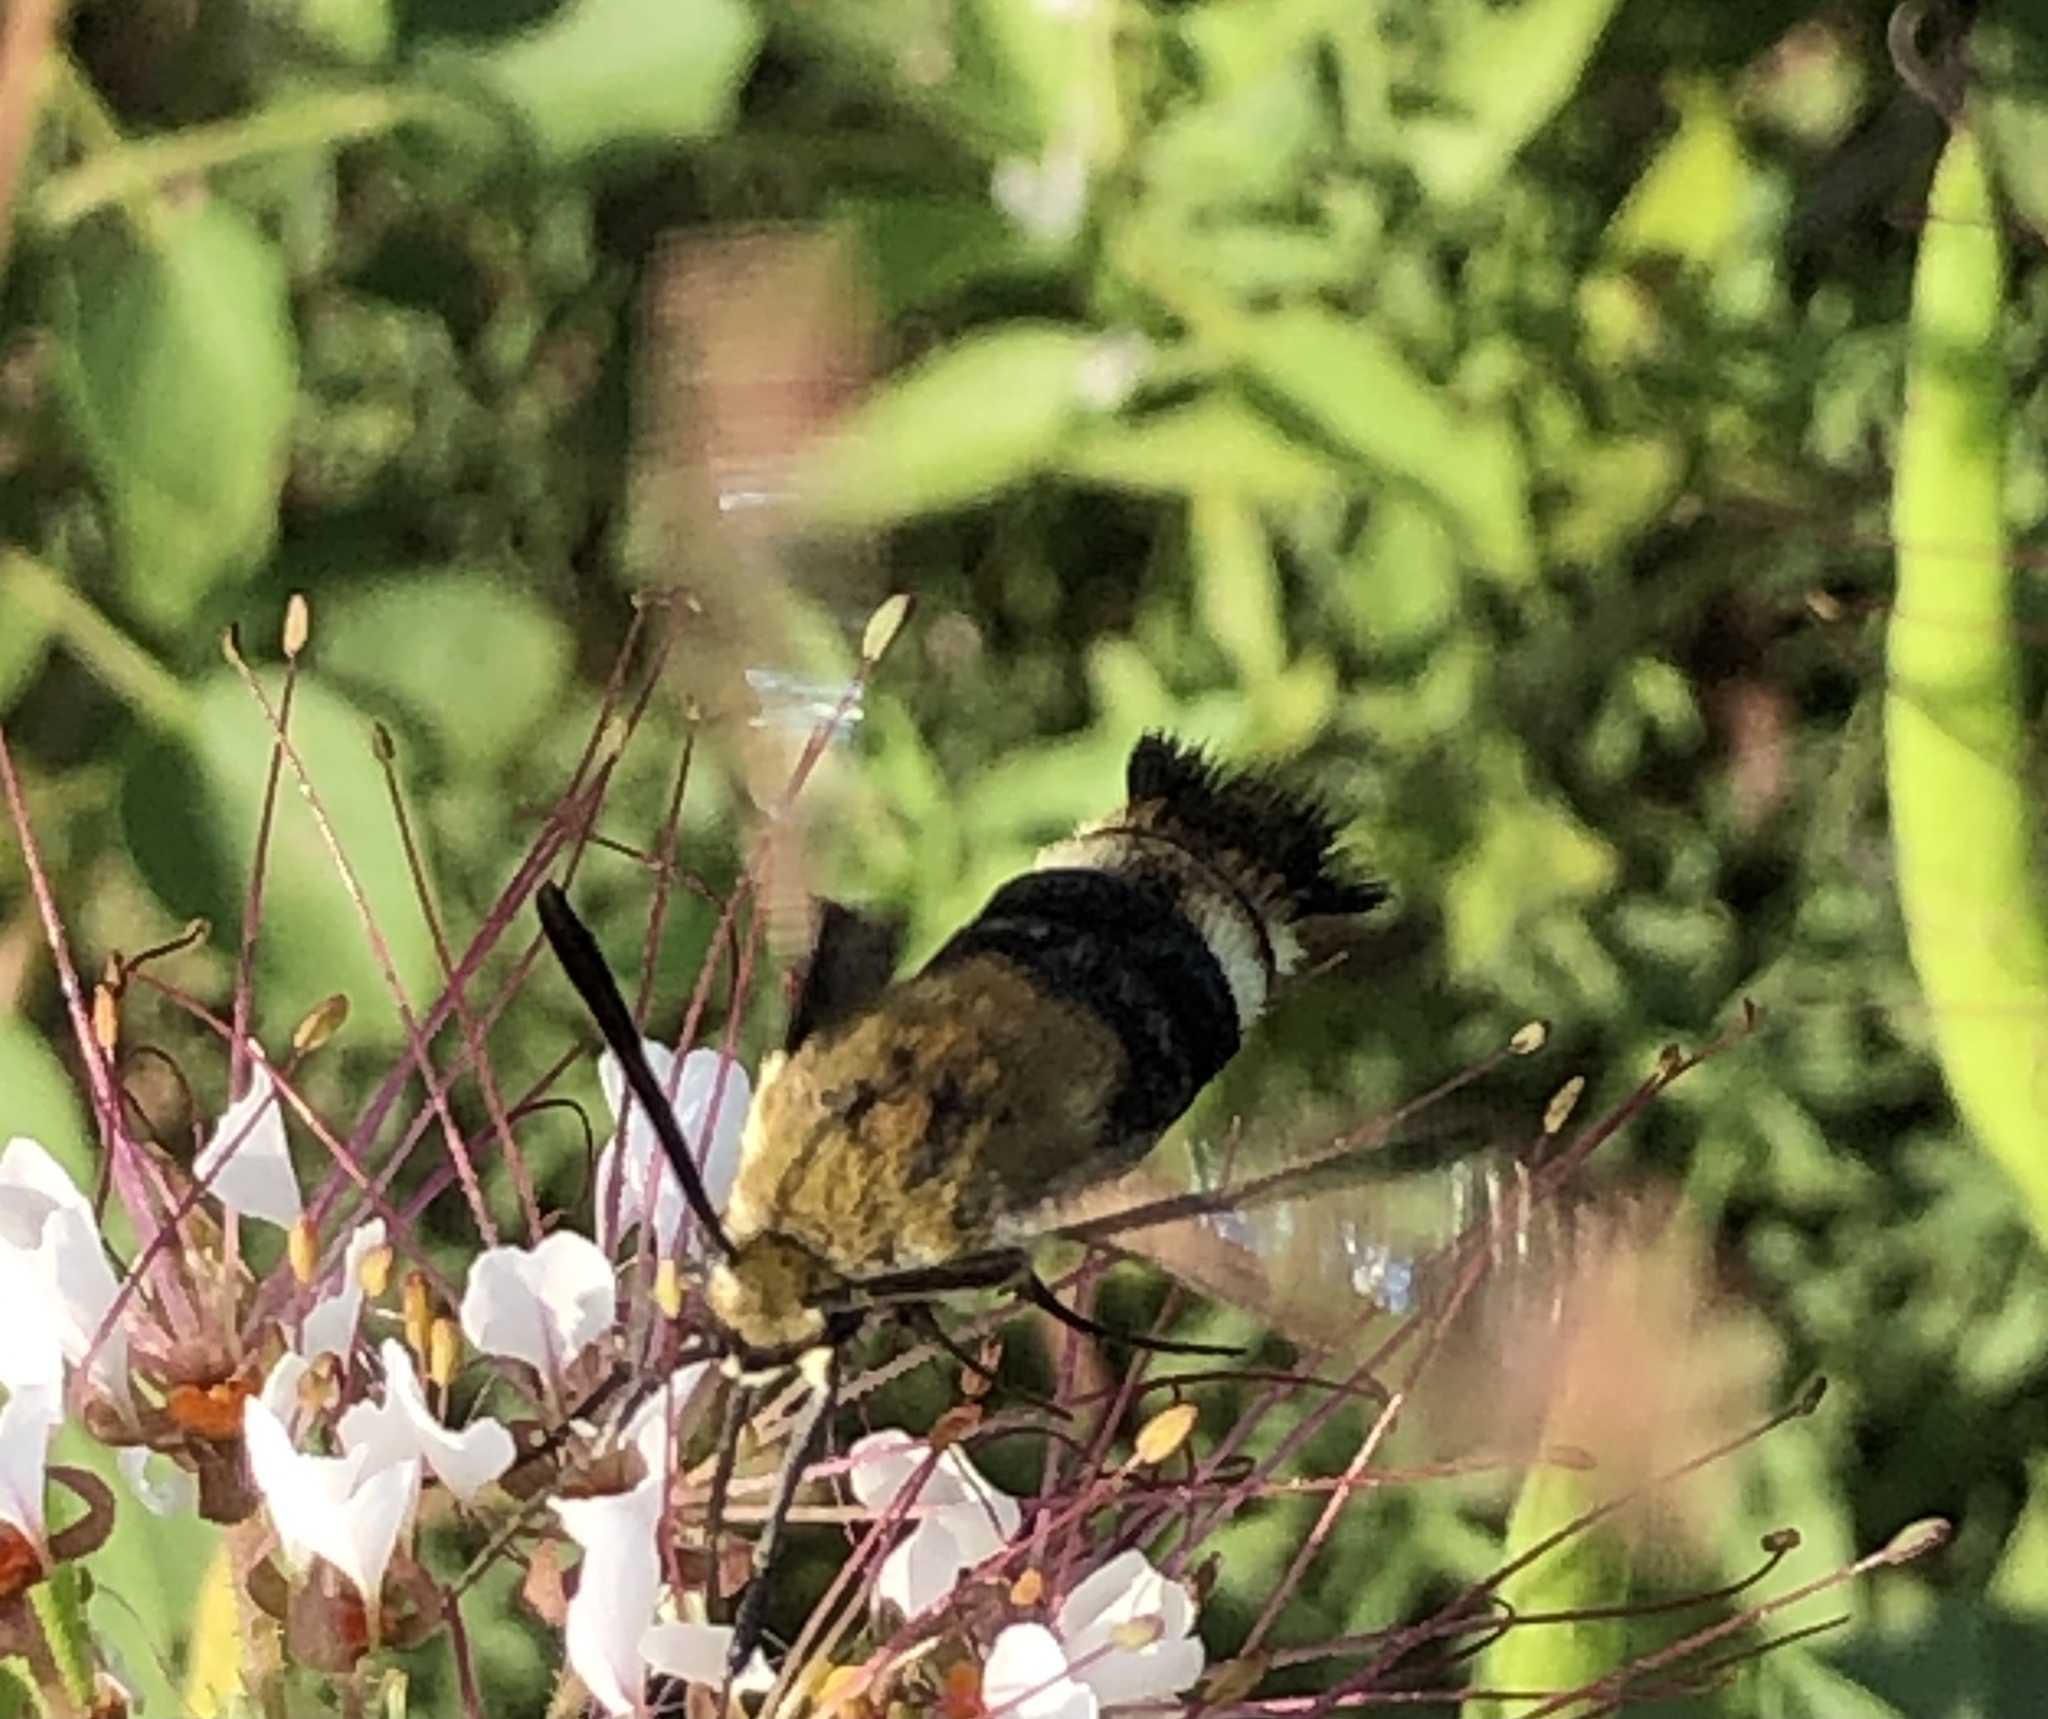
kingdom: Animalia
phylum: Arthropoda
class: Insecta
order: Lepidoptera
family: Sphingidae
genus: Hemaris
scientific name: Hemaris diffinis
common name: Bumblebee moth
